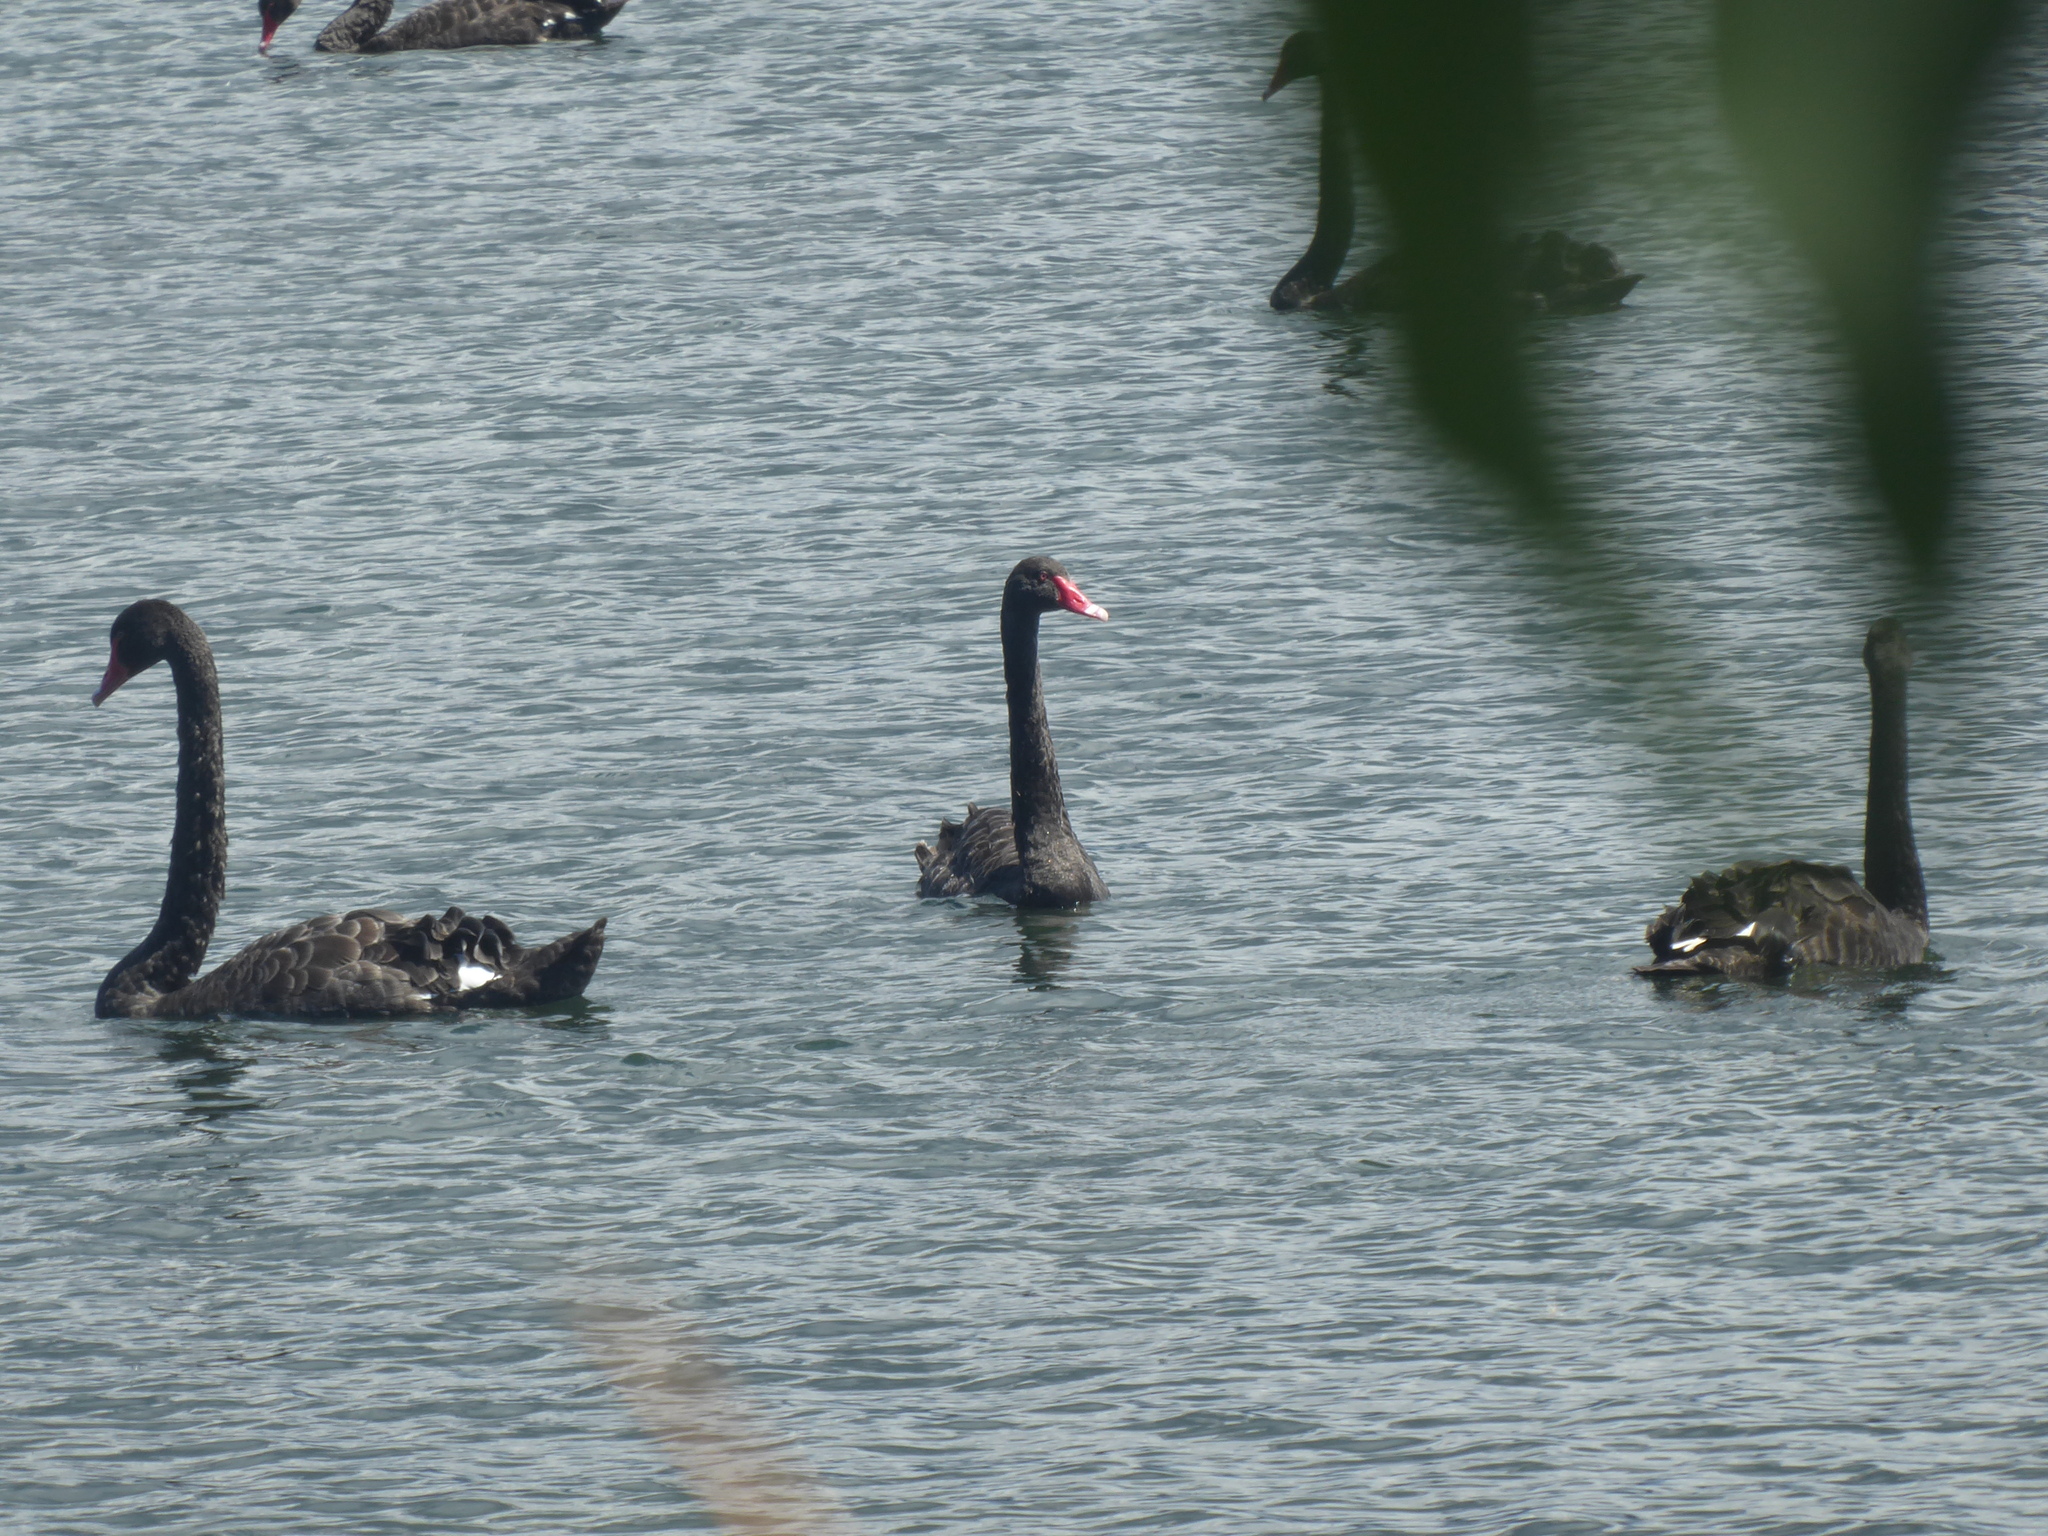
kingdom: Animalia
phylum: Chordata
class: Aves
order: Anseriformes
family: Anatidae
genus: Cygnus
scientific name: Cygnus atratus
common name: Black swan
